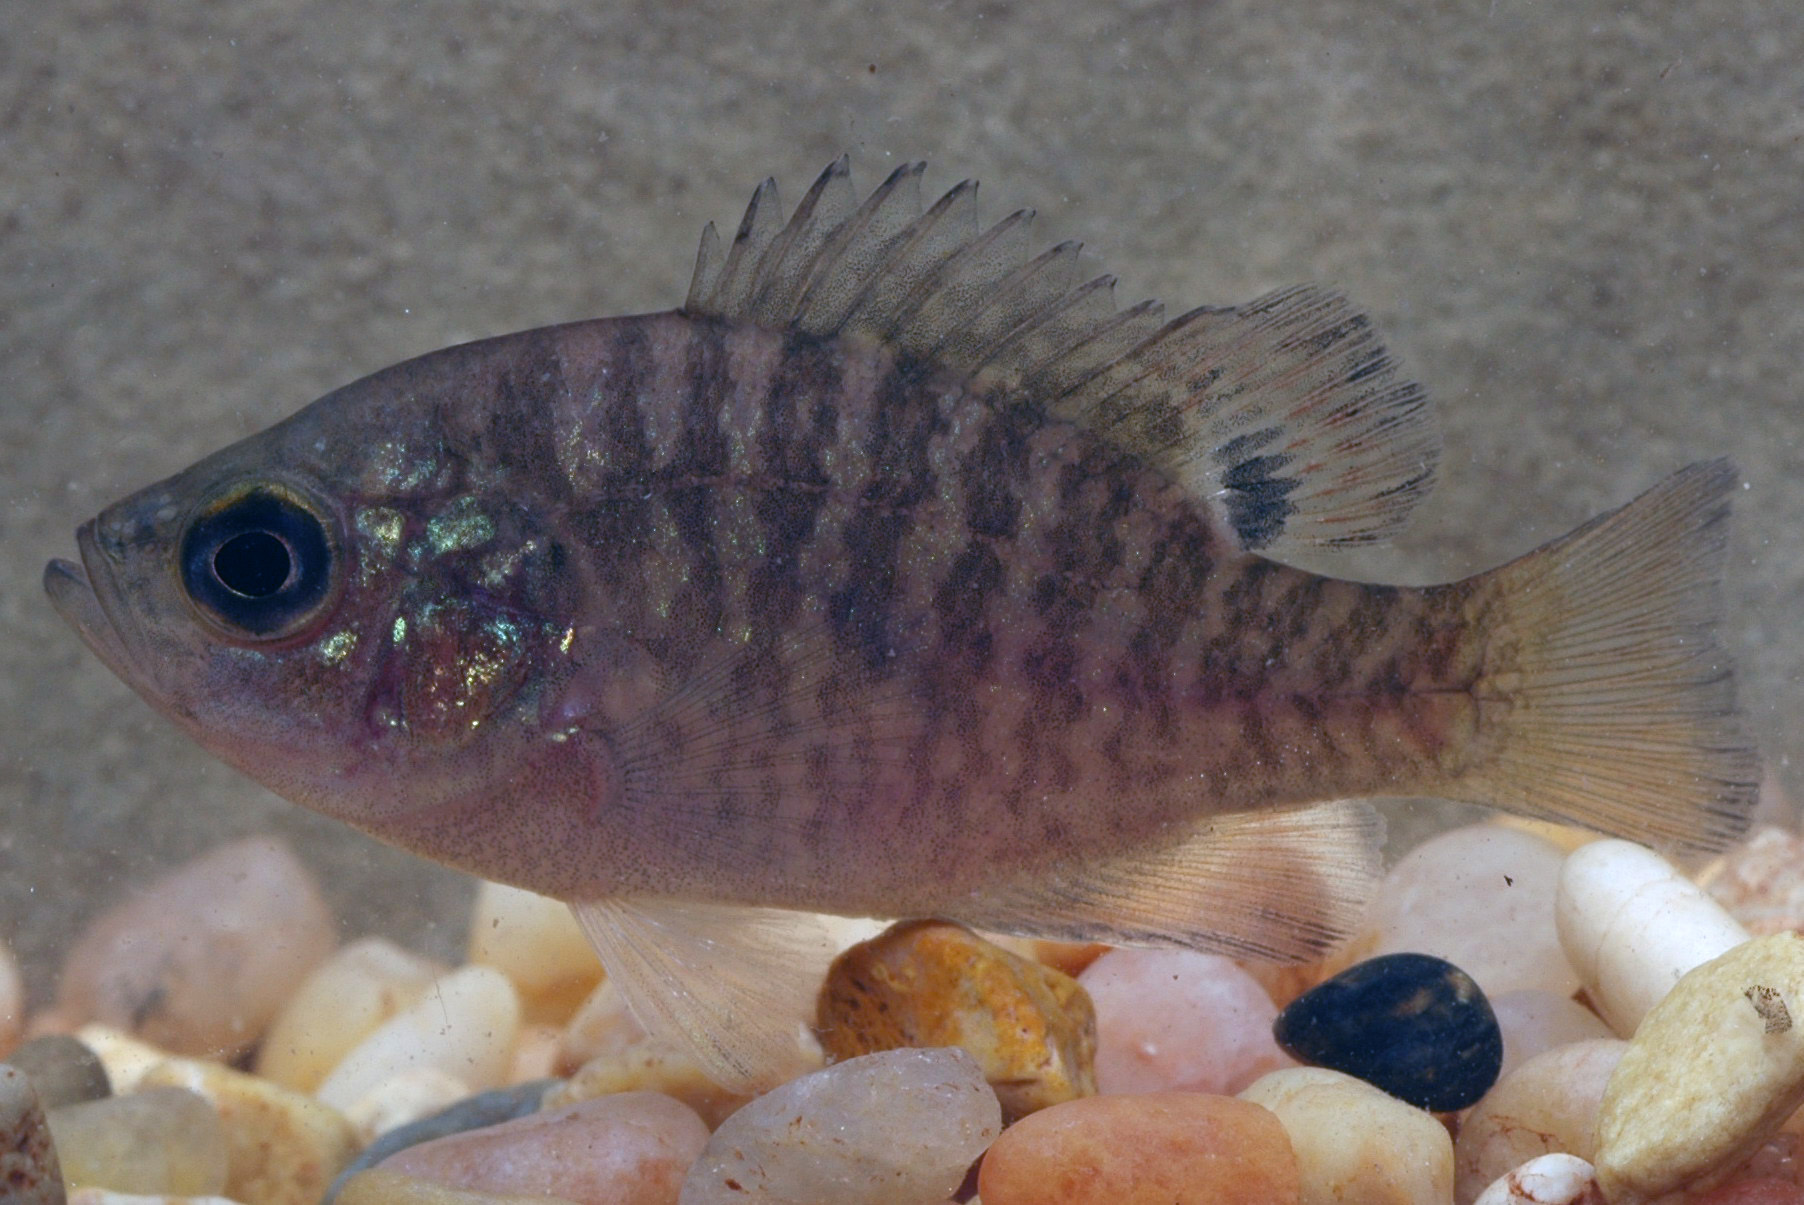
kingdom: Animalia
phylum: Chordata
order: Perciformes
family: Centrarchidae
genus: Lepomis
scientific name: Lepomis symmetricus
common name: Bantam sunfish
